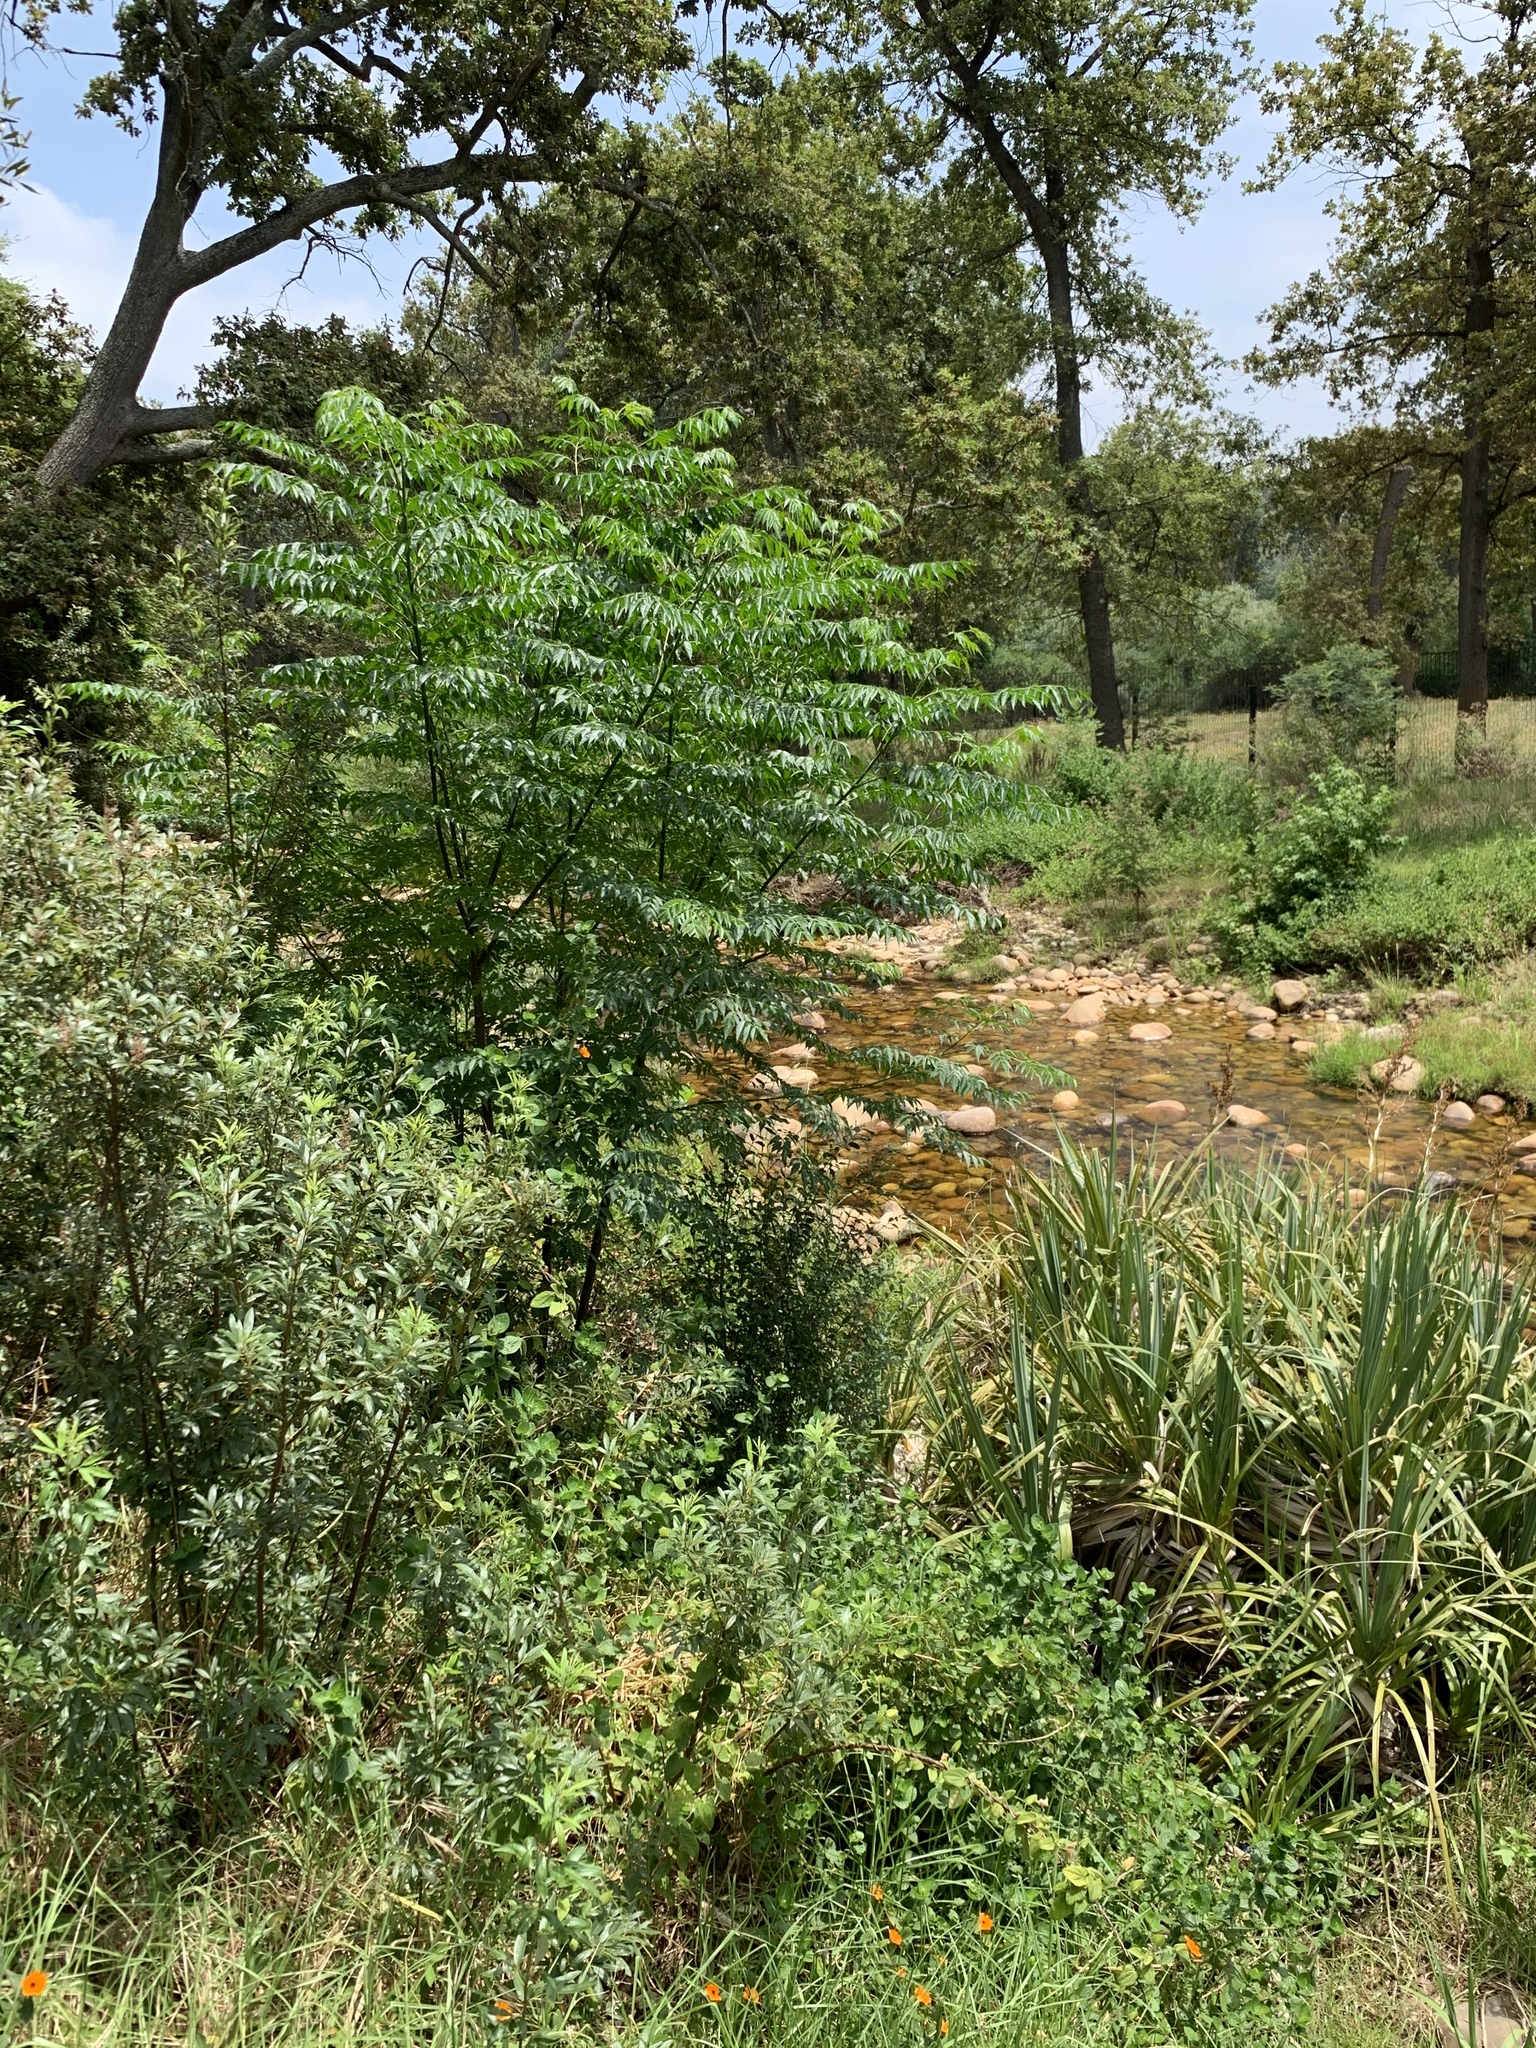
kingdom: Plantae
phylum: Tracheophyta
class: Magnoliopsida
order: Sapindales
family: Meliaceae
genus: Melia
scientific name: Melia azedarach
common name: Chinaberrytree
